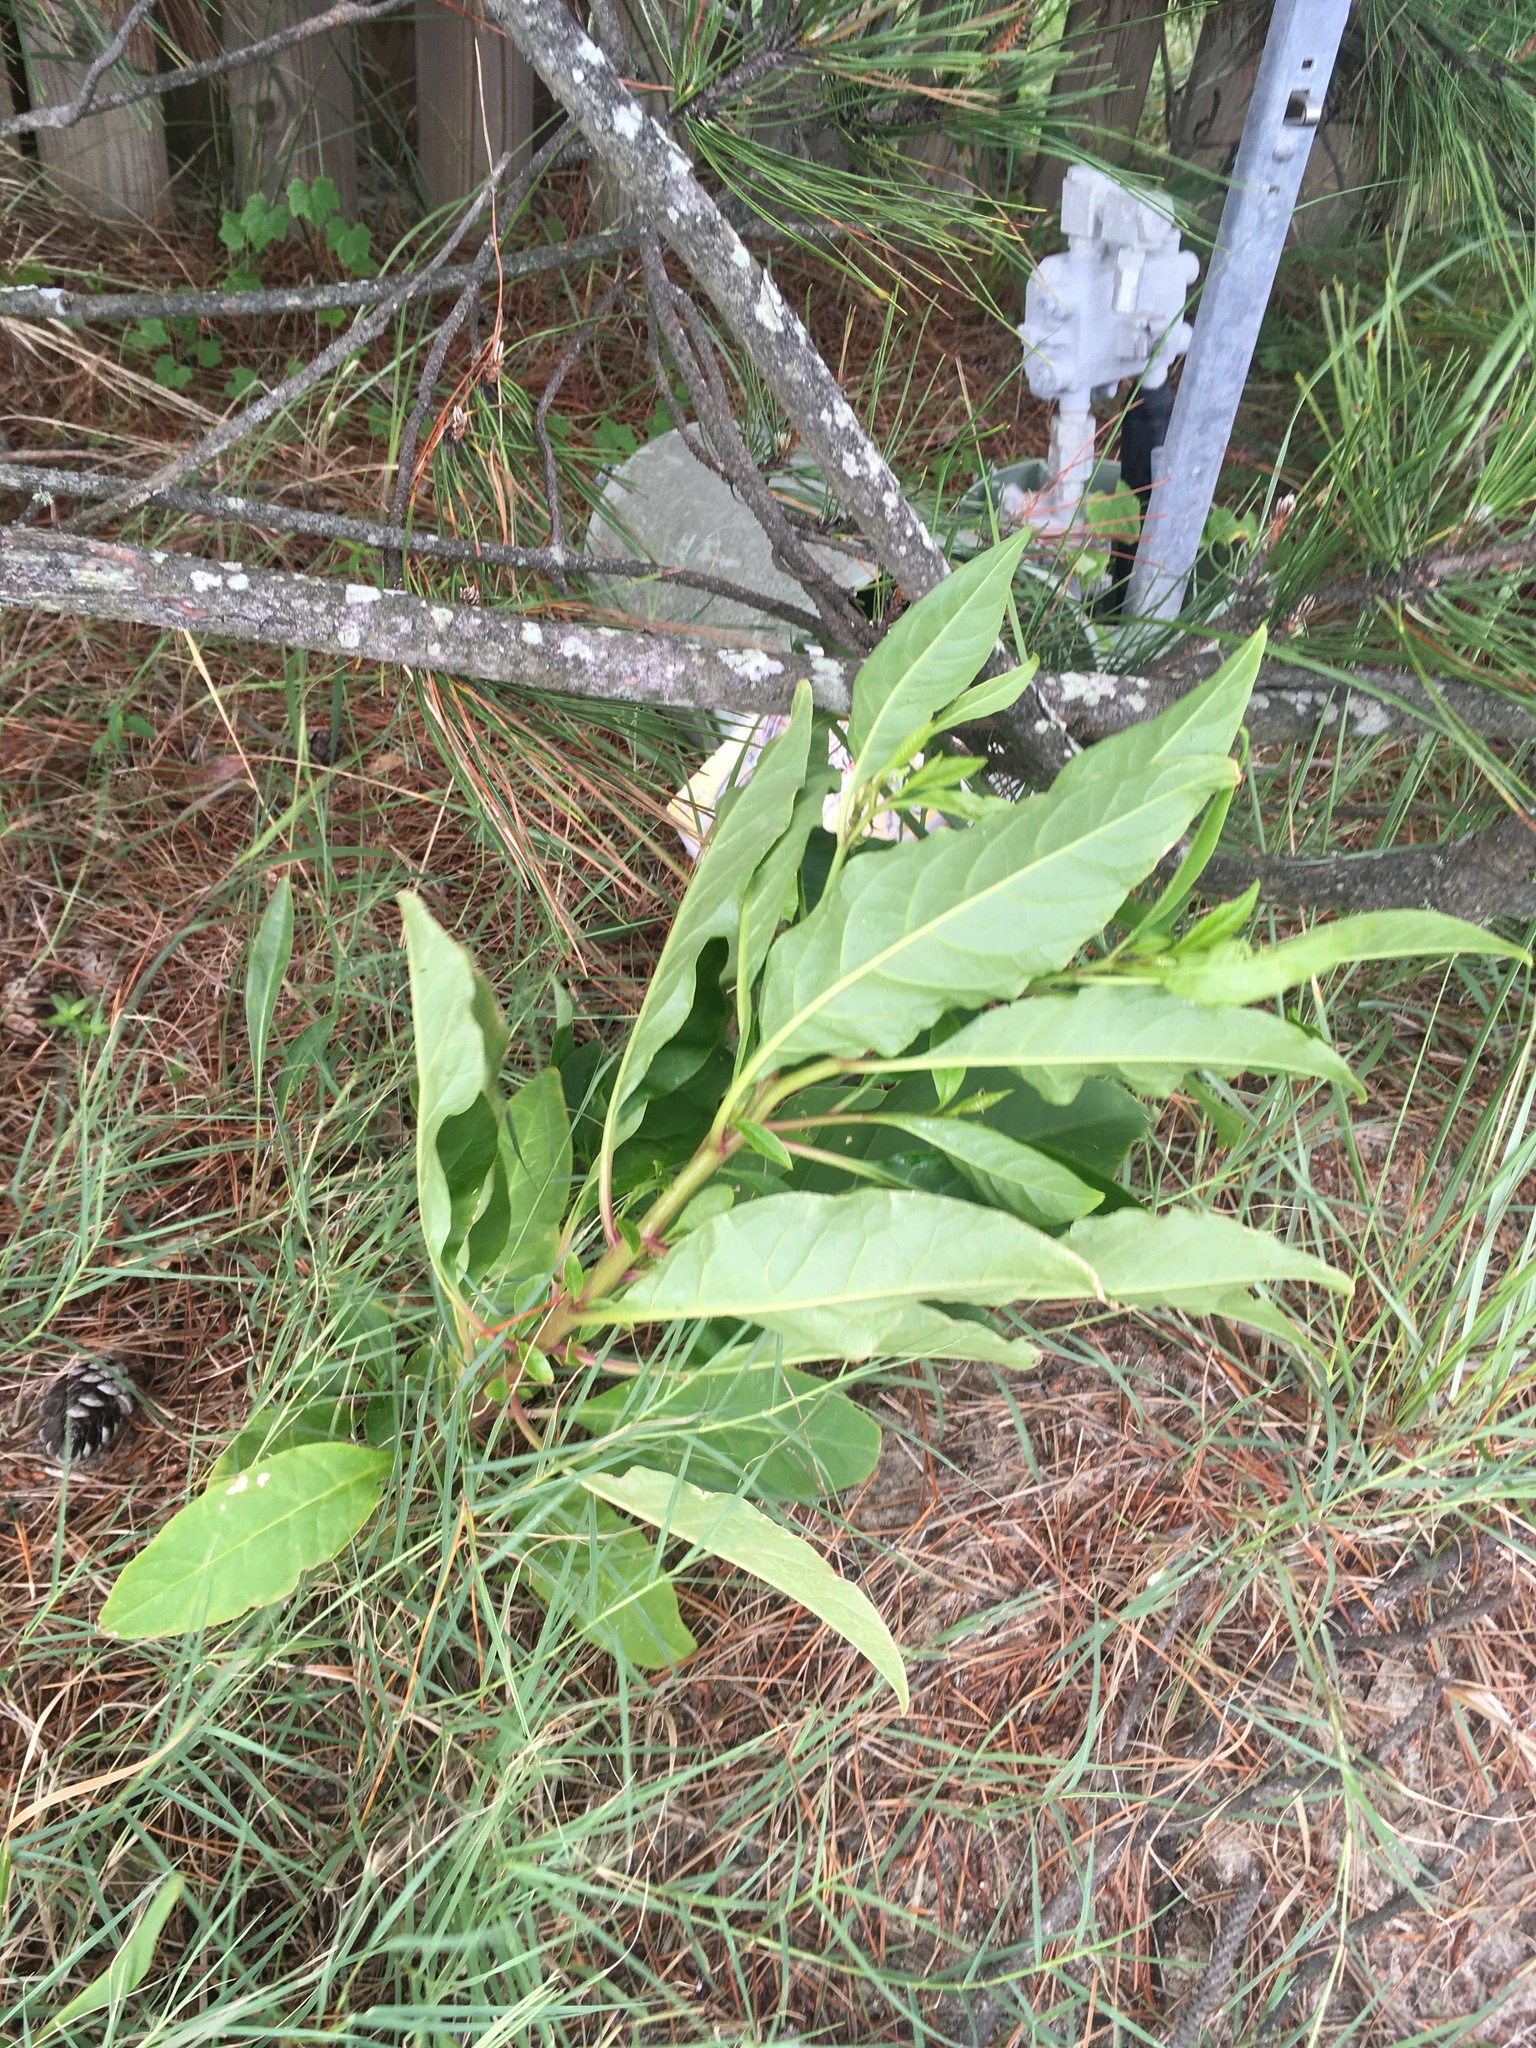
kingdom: Plantae
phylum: Tracheophyta
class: Magnoliopsida
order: Caryophyllales
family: Phytolaccaceae
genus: Phytolacca
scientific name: Phytolacca americana
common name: American pokeweed
